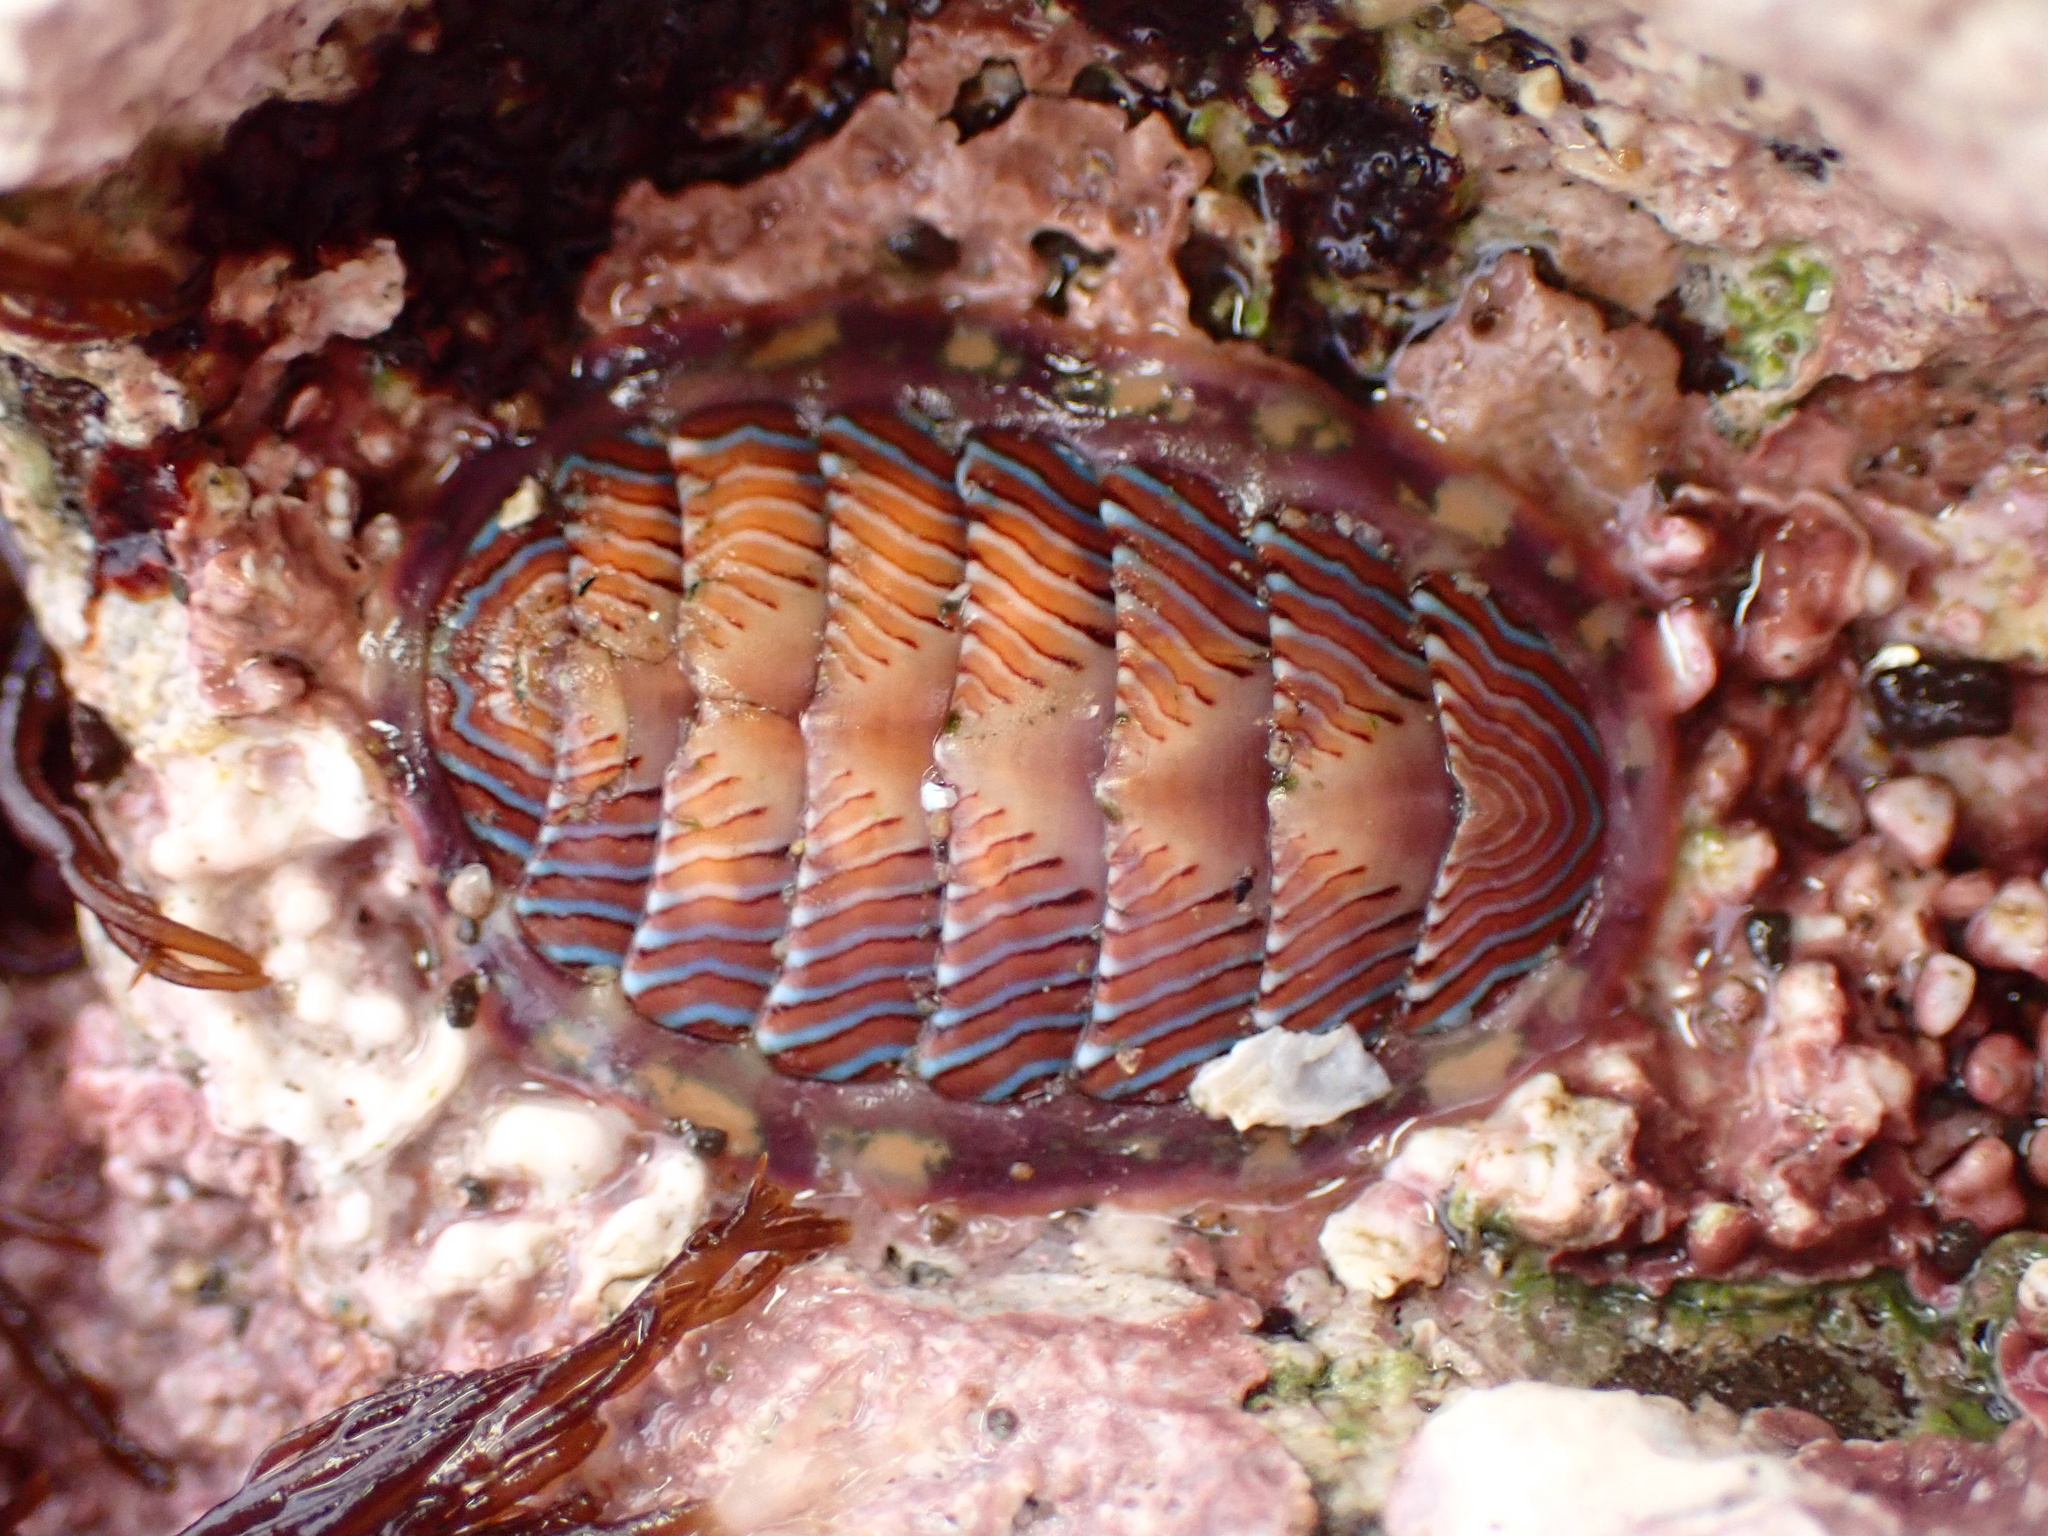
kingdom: Animalia
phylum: Mollusca
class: Polyplacophora
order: Chitonida
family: Tonicellidae
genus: Tonicella
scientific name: Tonicella lineata
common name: Lined chiton
